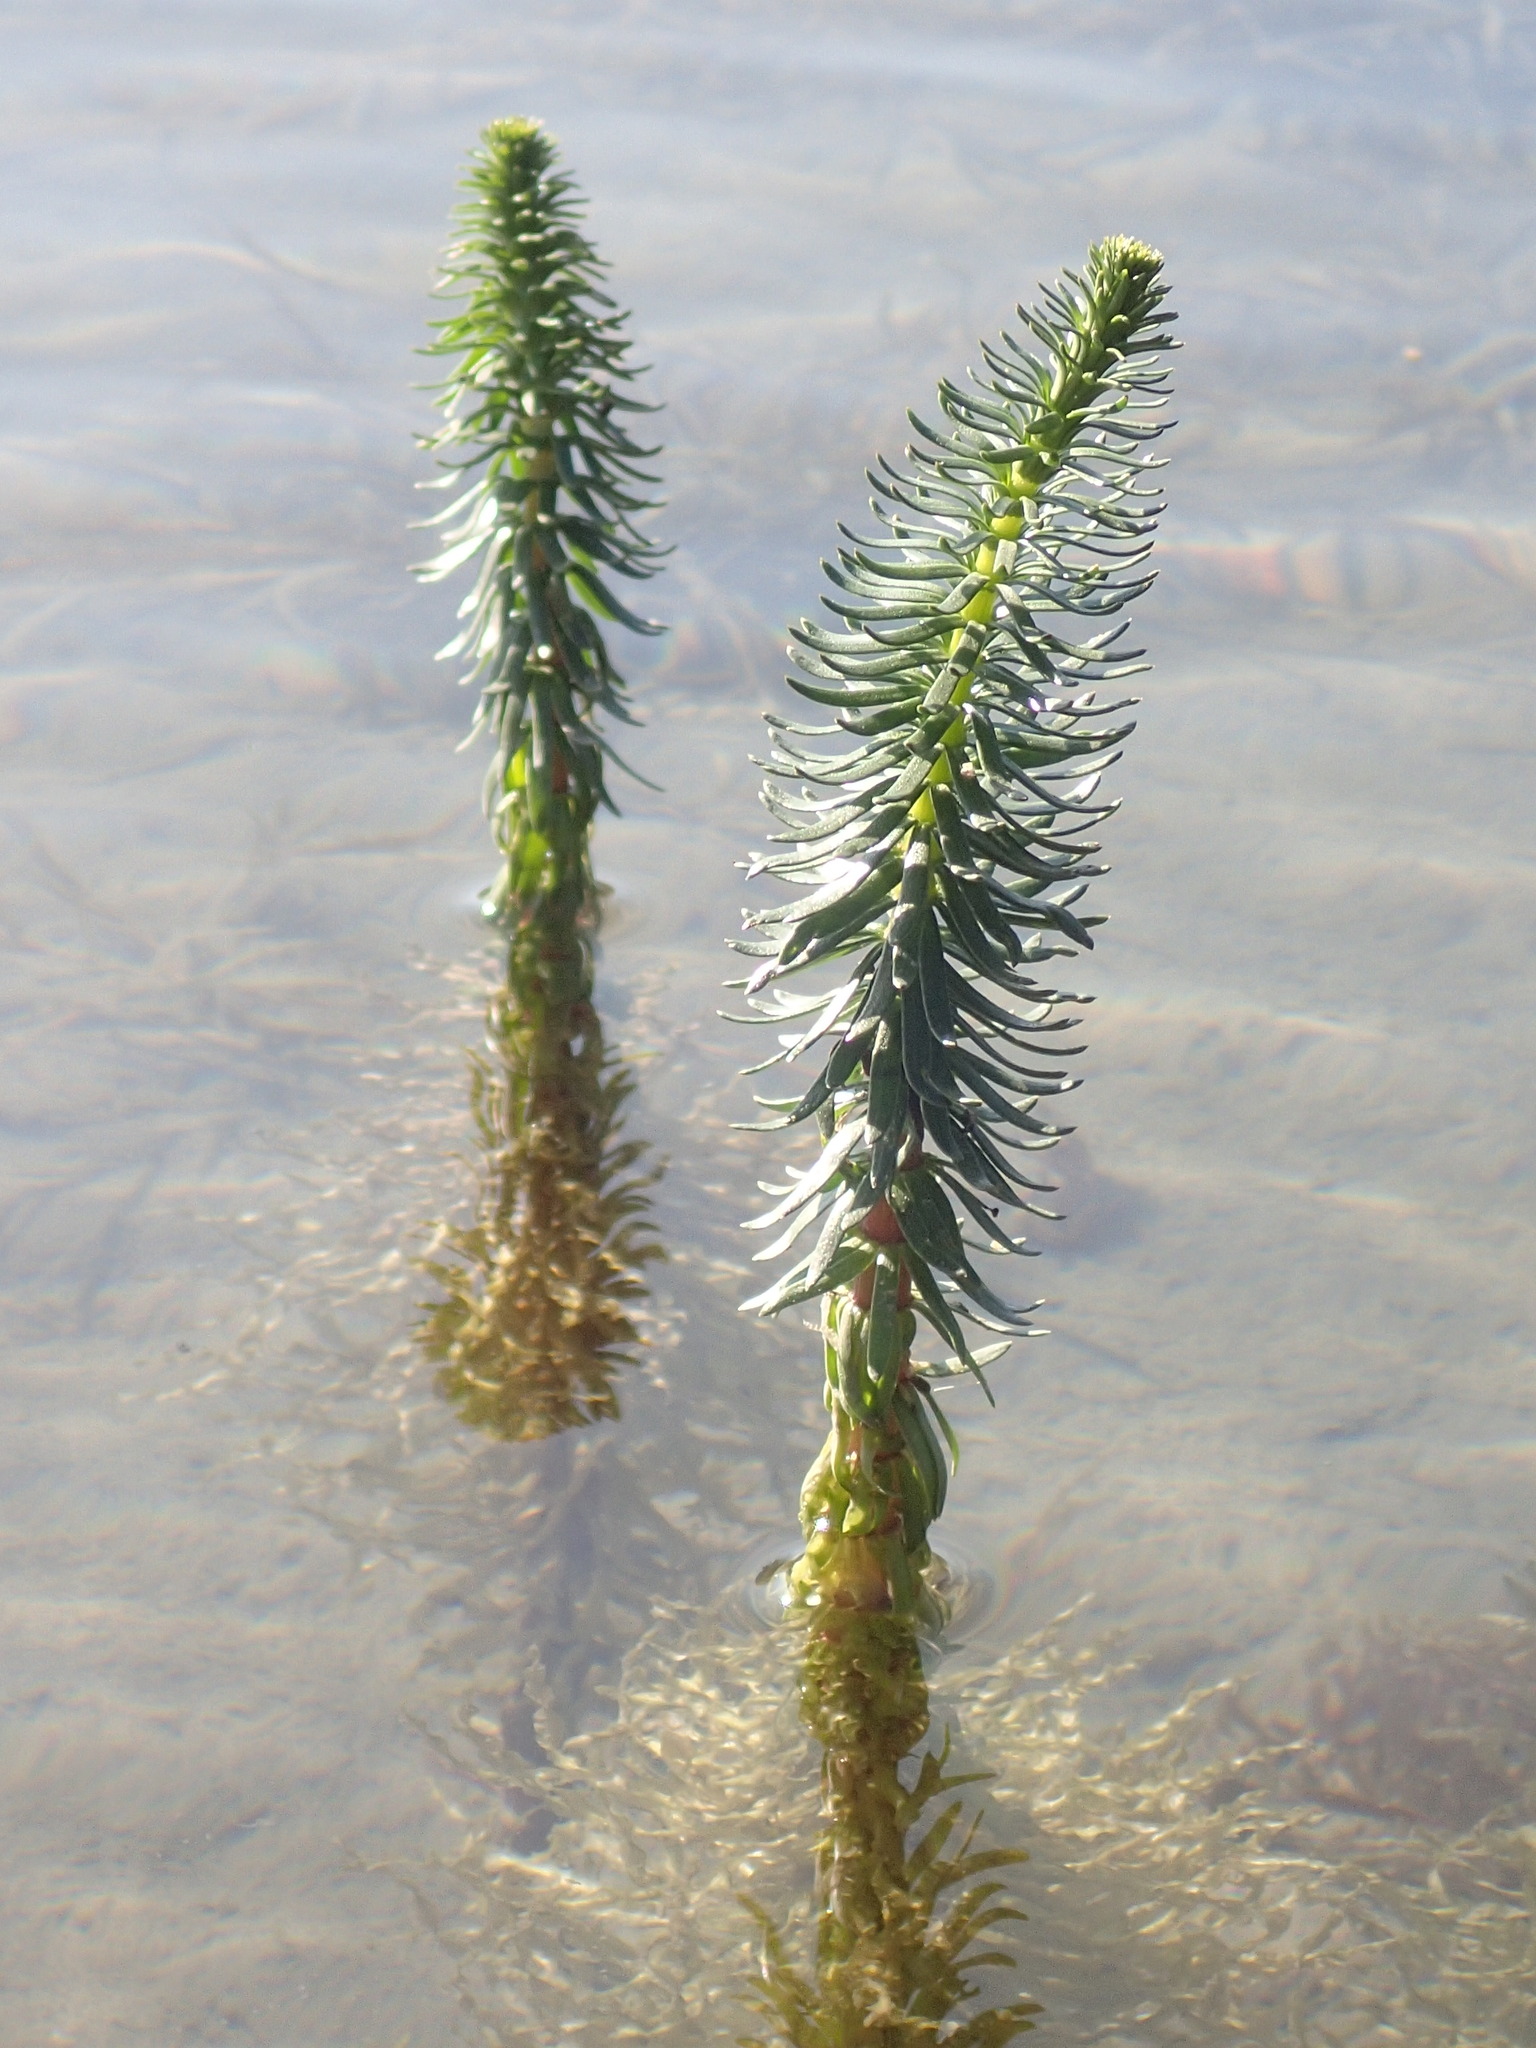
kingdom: Plantae
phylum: Tracheophyta
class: Magnoliopsida
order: Lamiales
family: Plantaginaceae
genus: Hippuris
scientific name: Hippuris vulgaris
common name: Mare's-tail
